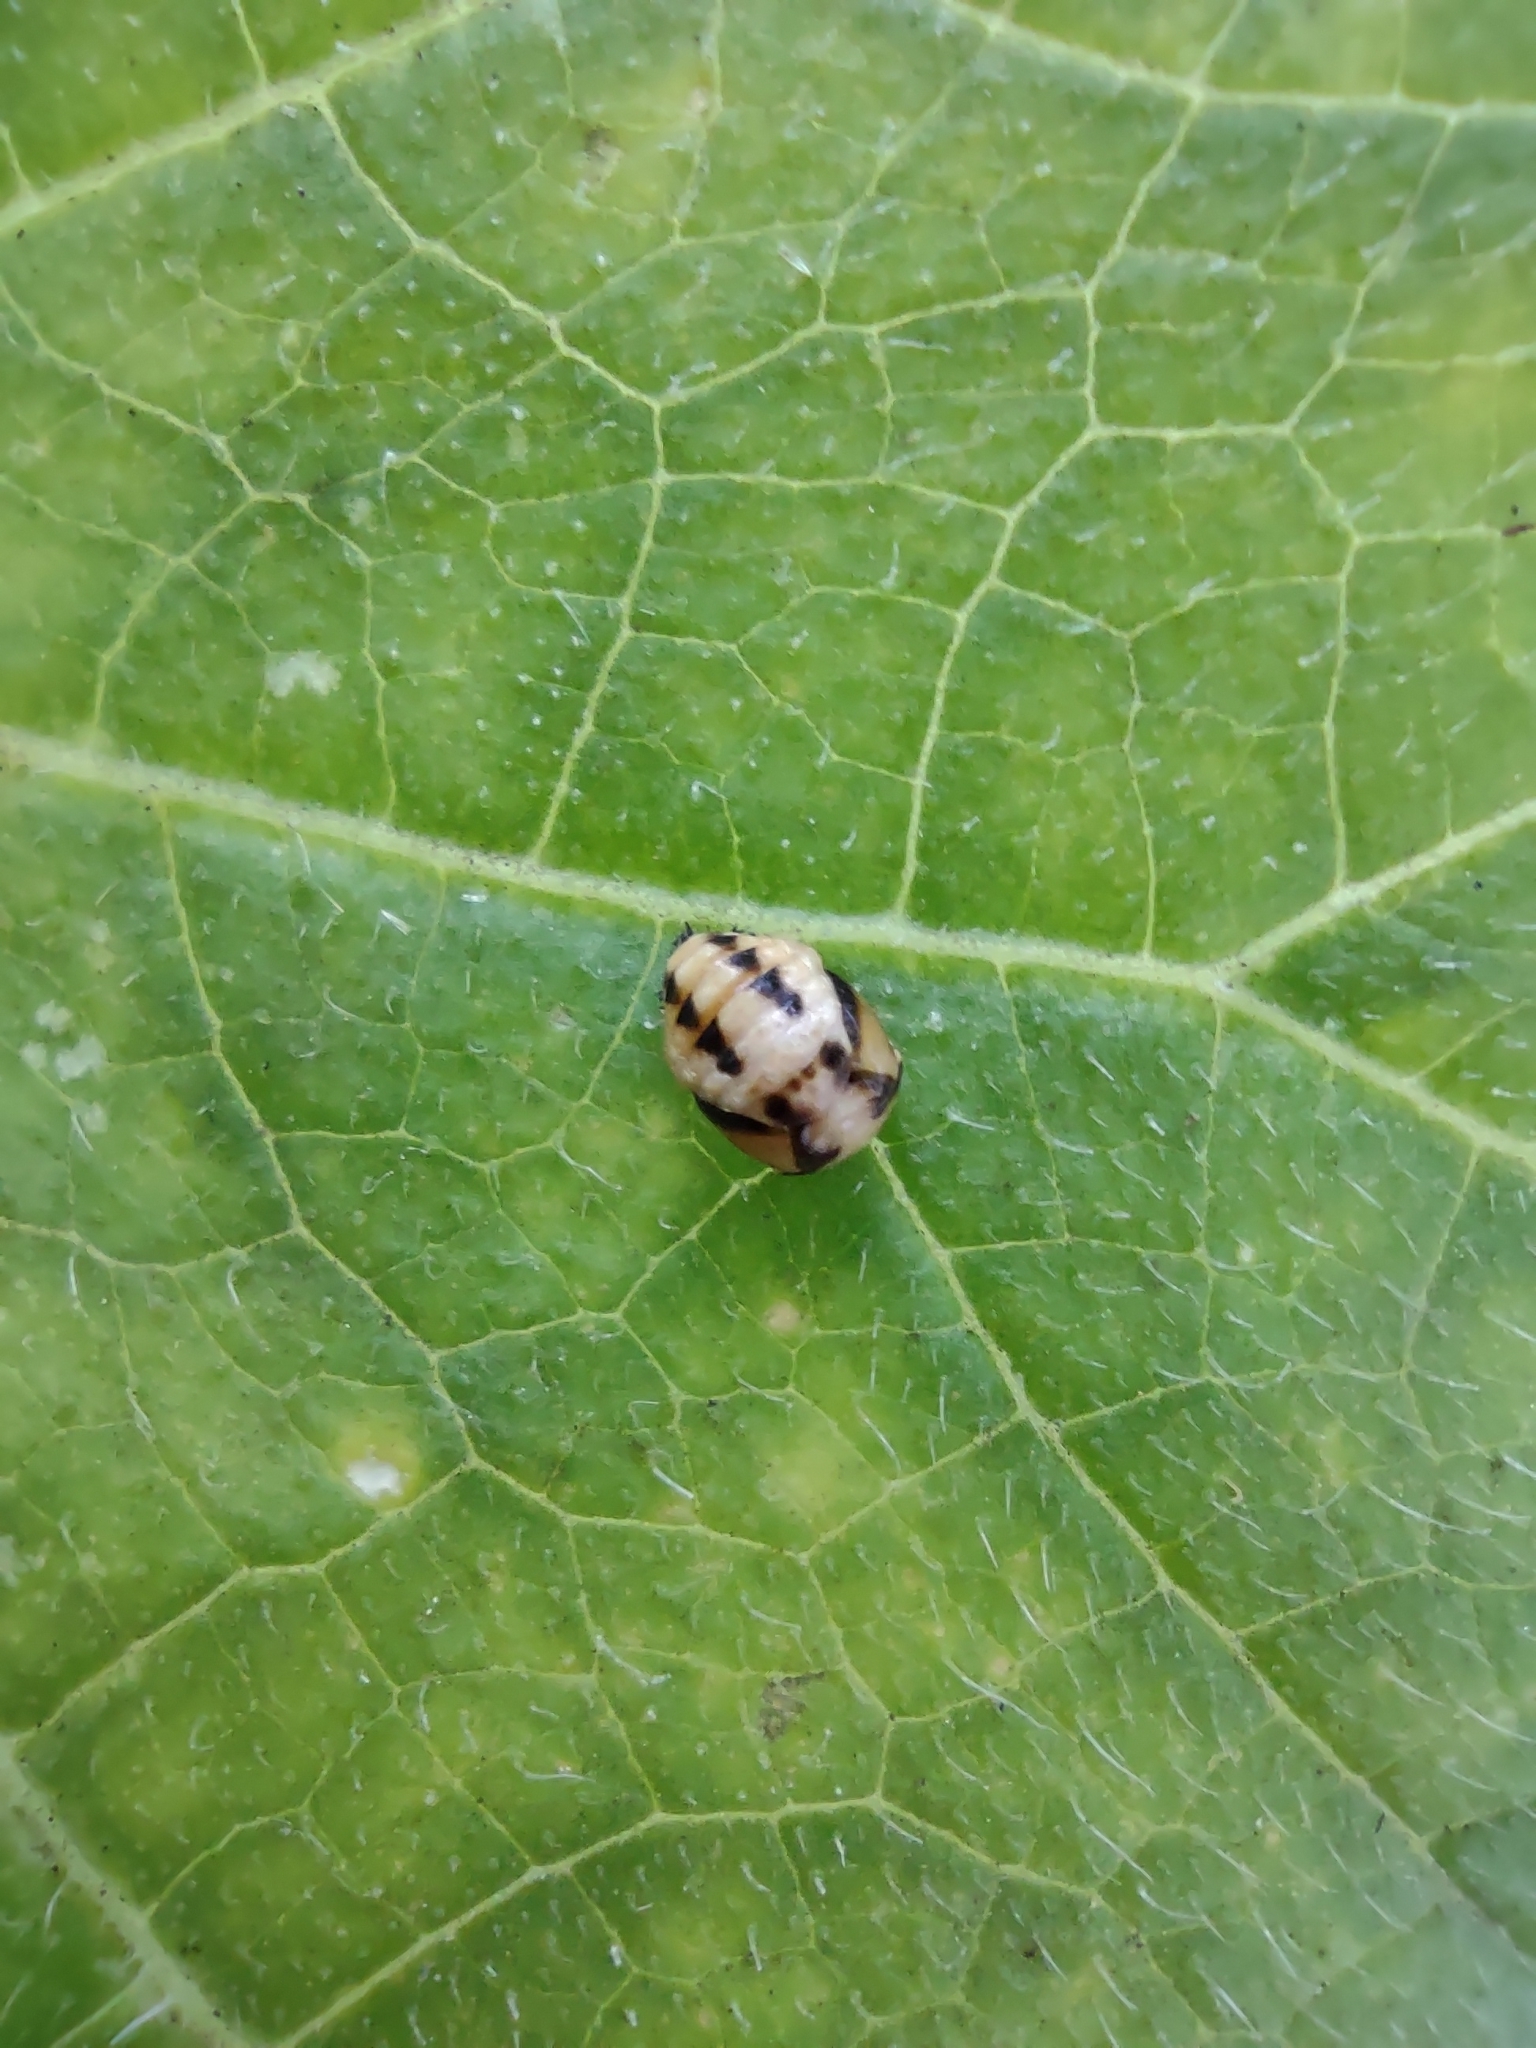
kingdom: Animalia
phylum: Arthropoda
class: Insecta
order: Coleoptera
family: Coccinellidae
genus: Cheilomenes
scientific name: Cheilomenes sexmaculata
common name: Ladybird beetle
